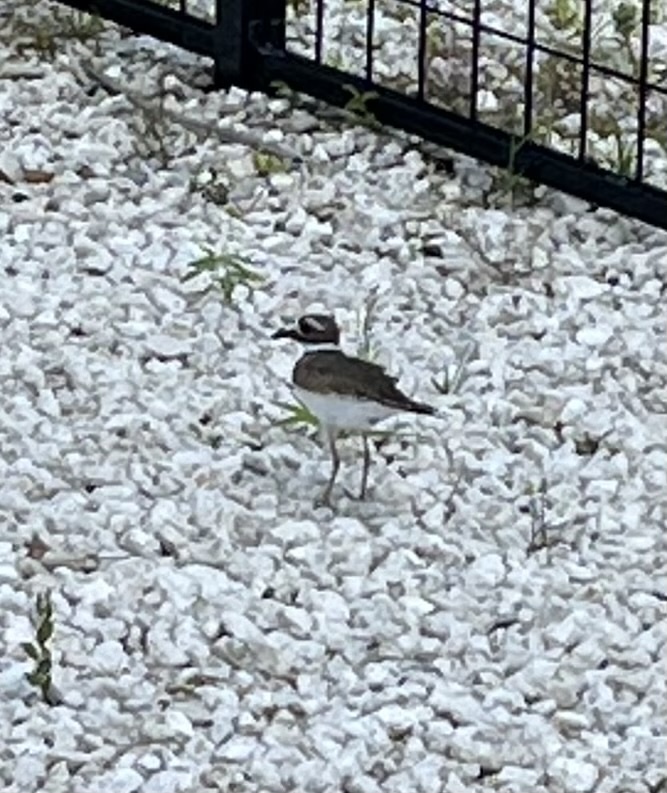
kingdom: Animalia
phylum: Chordata
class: Aves
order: Charadriiformes
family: Charadriidae
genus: Charadrius
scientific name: Charadrius vociferus
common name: Killdeer
